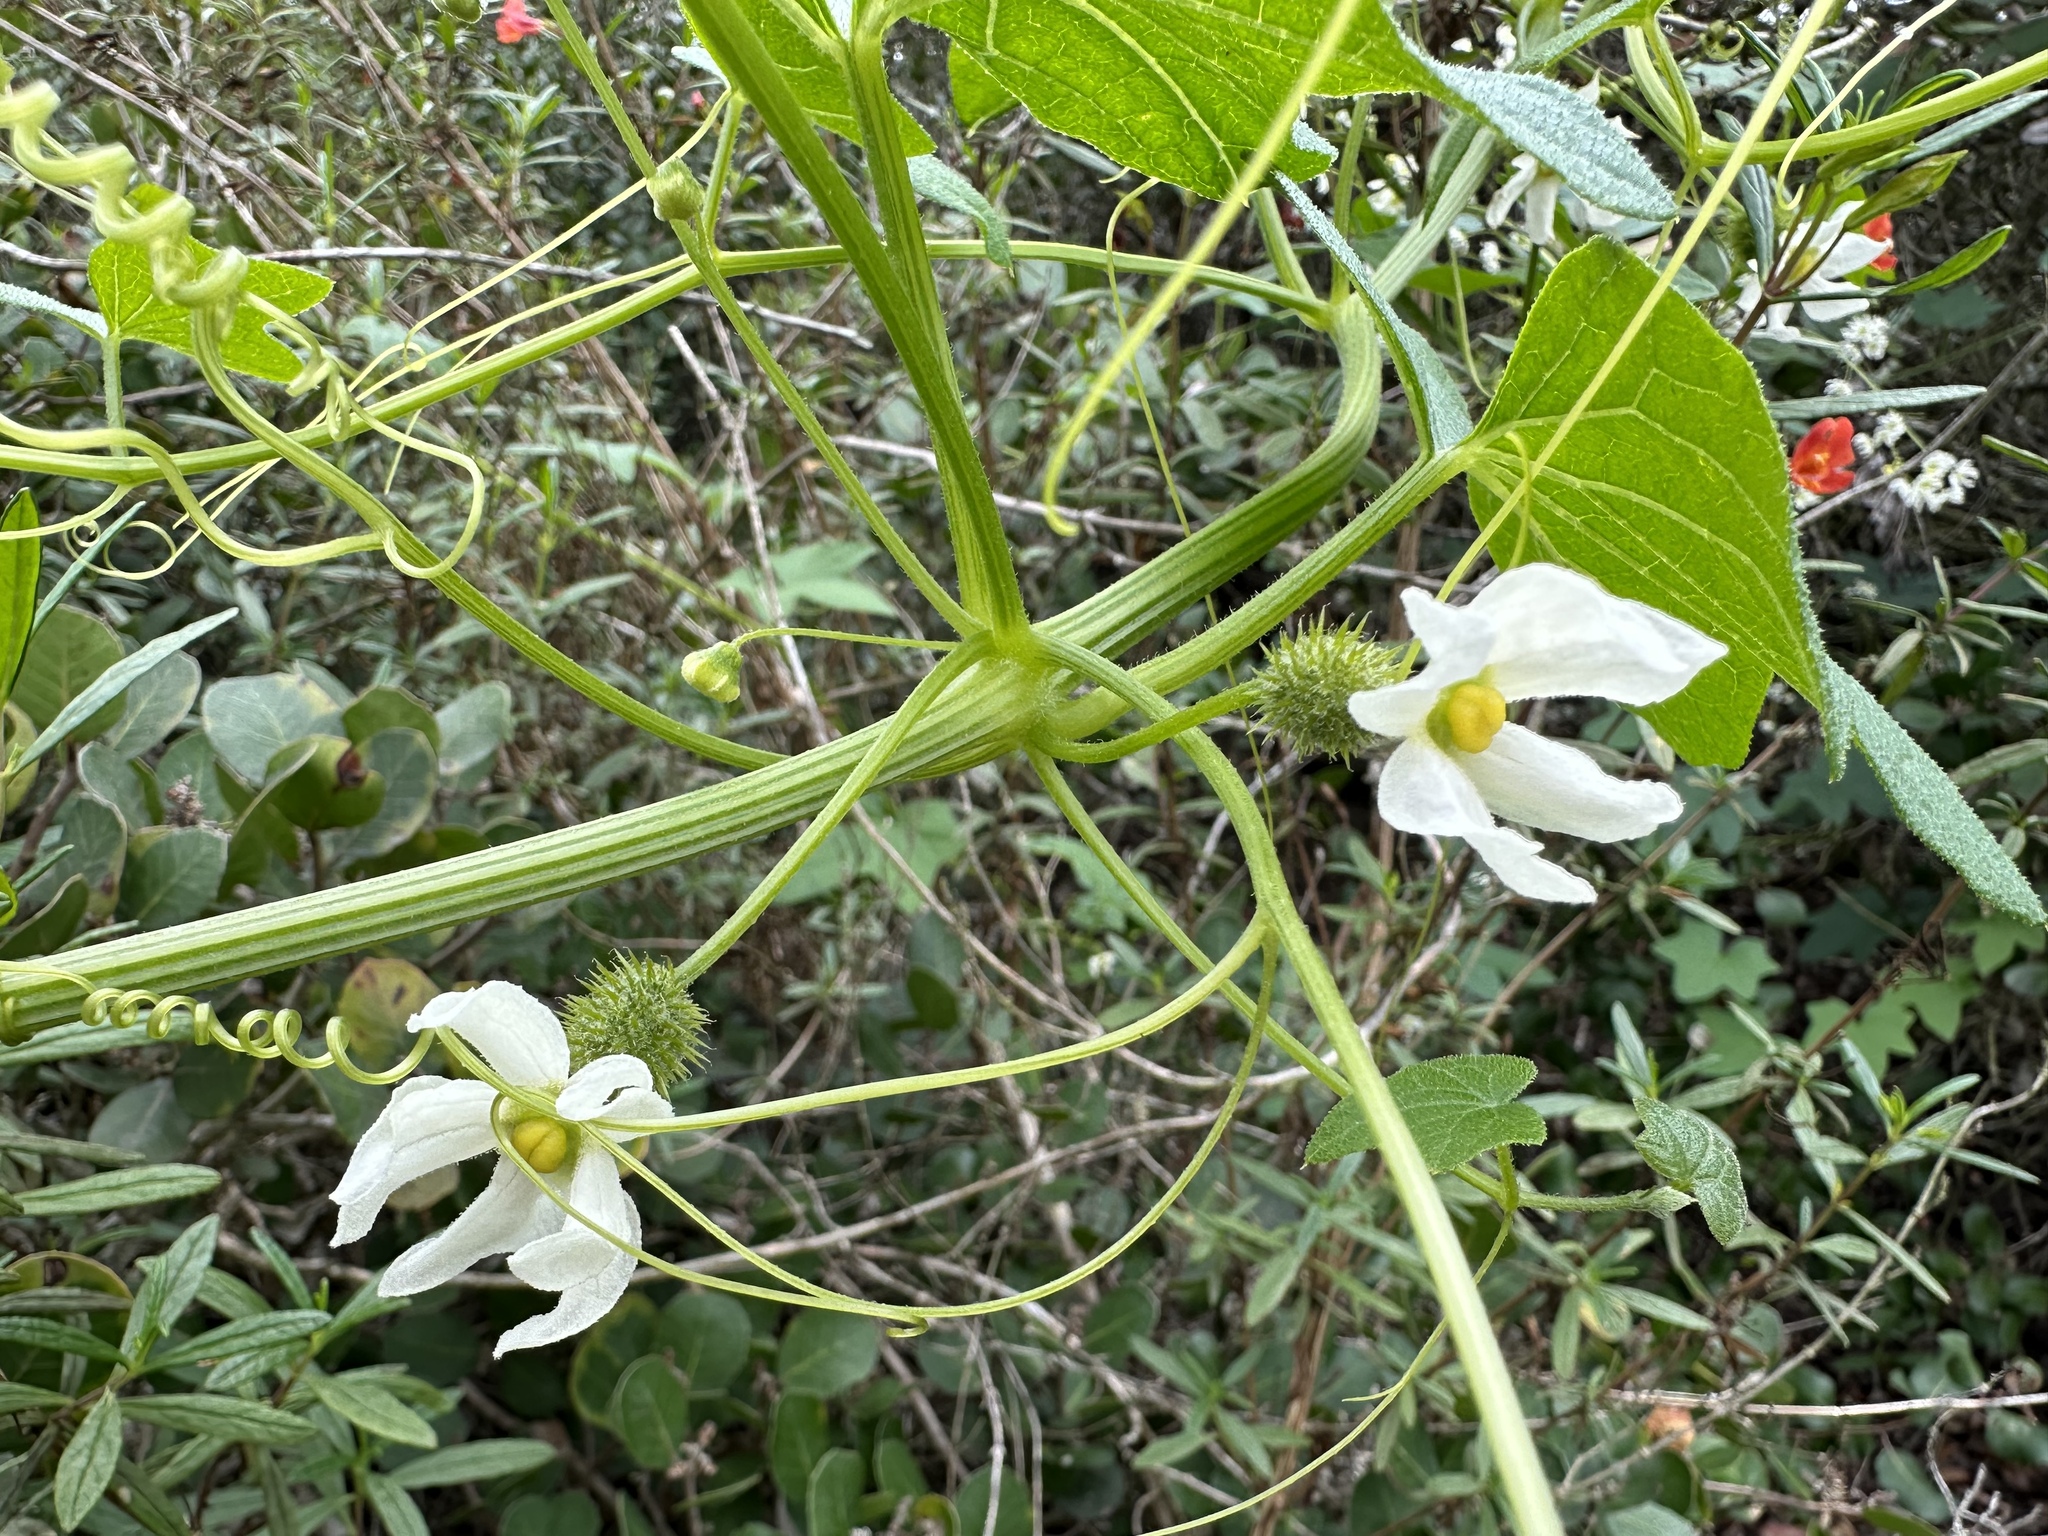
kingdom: Plantae
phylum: Tracheophyta
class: Magnoliopsida
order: Cucurbitales
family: Cucurbitaceae
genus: Marah
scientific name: Marah macrocarpa
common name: Cucamonga manroot
